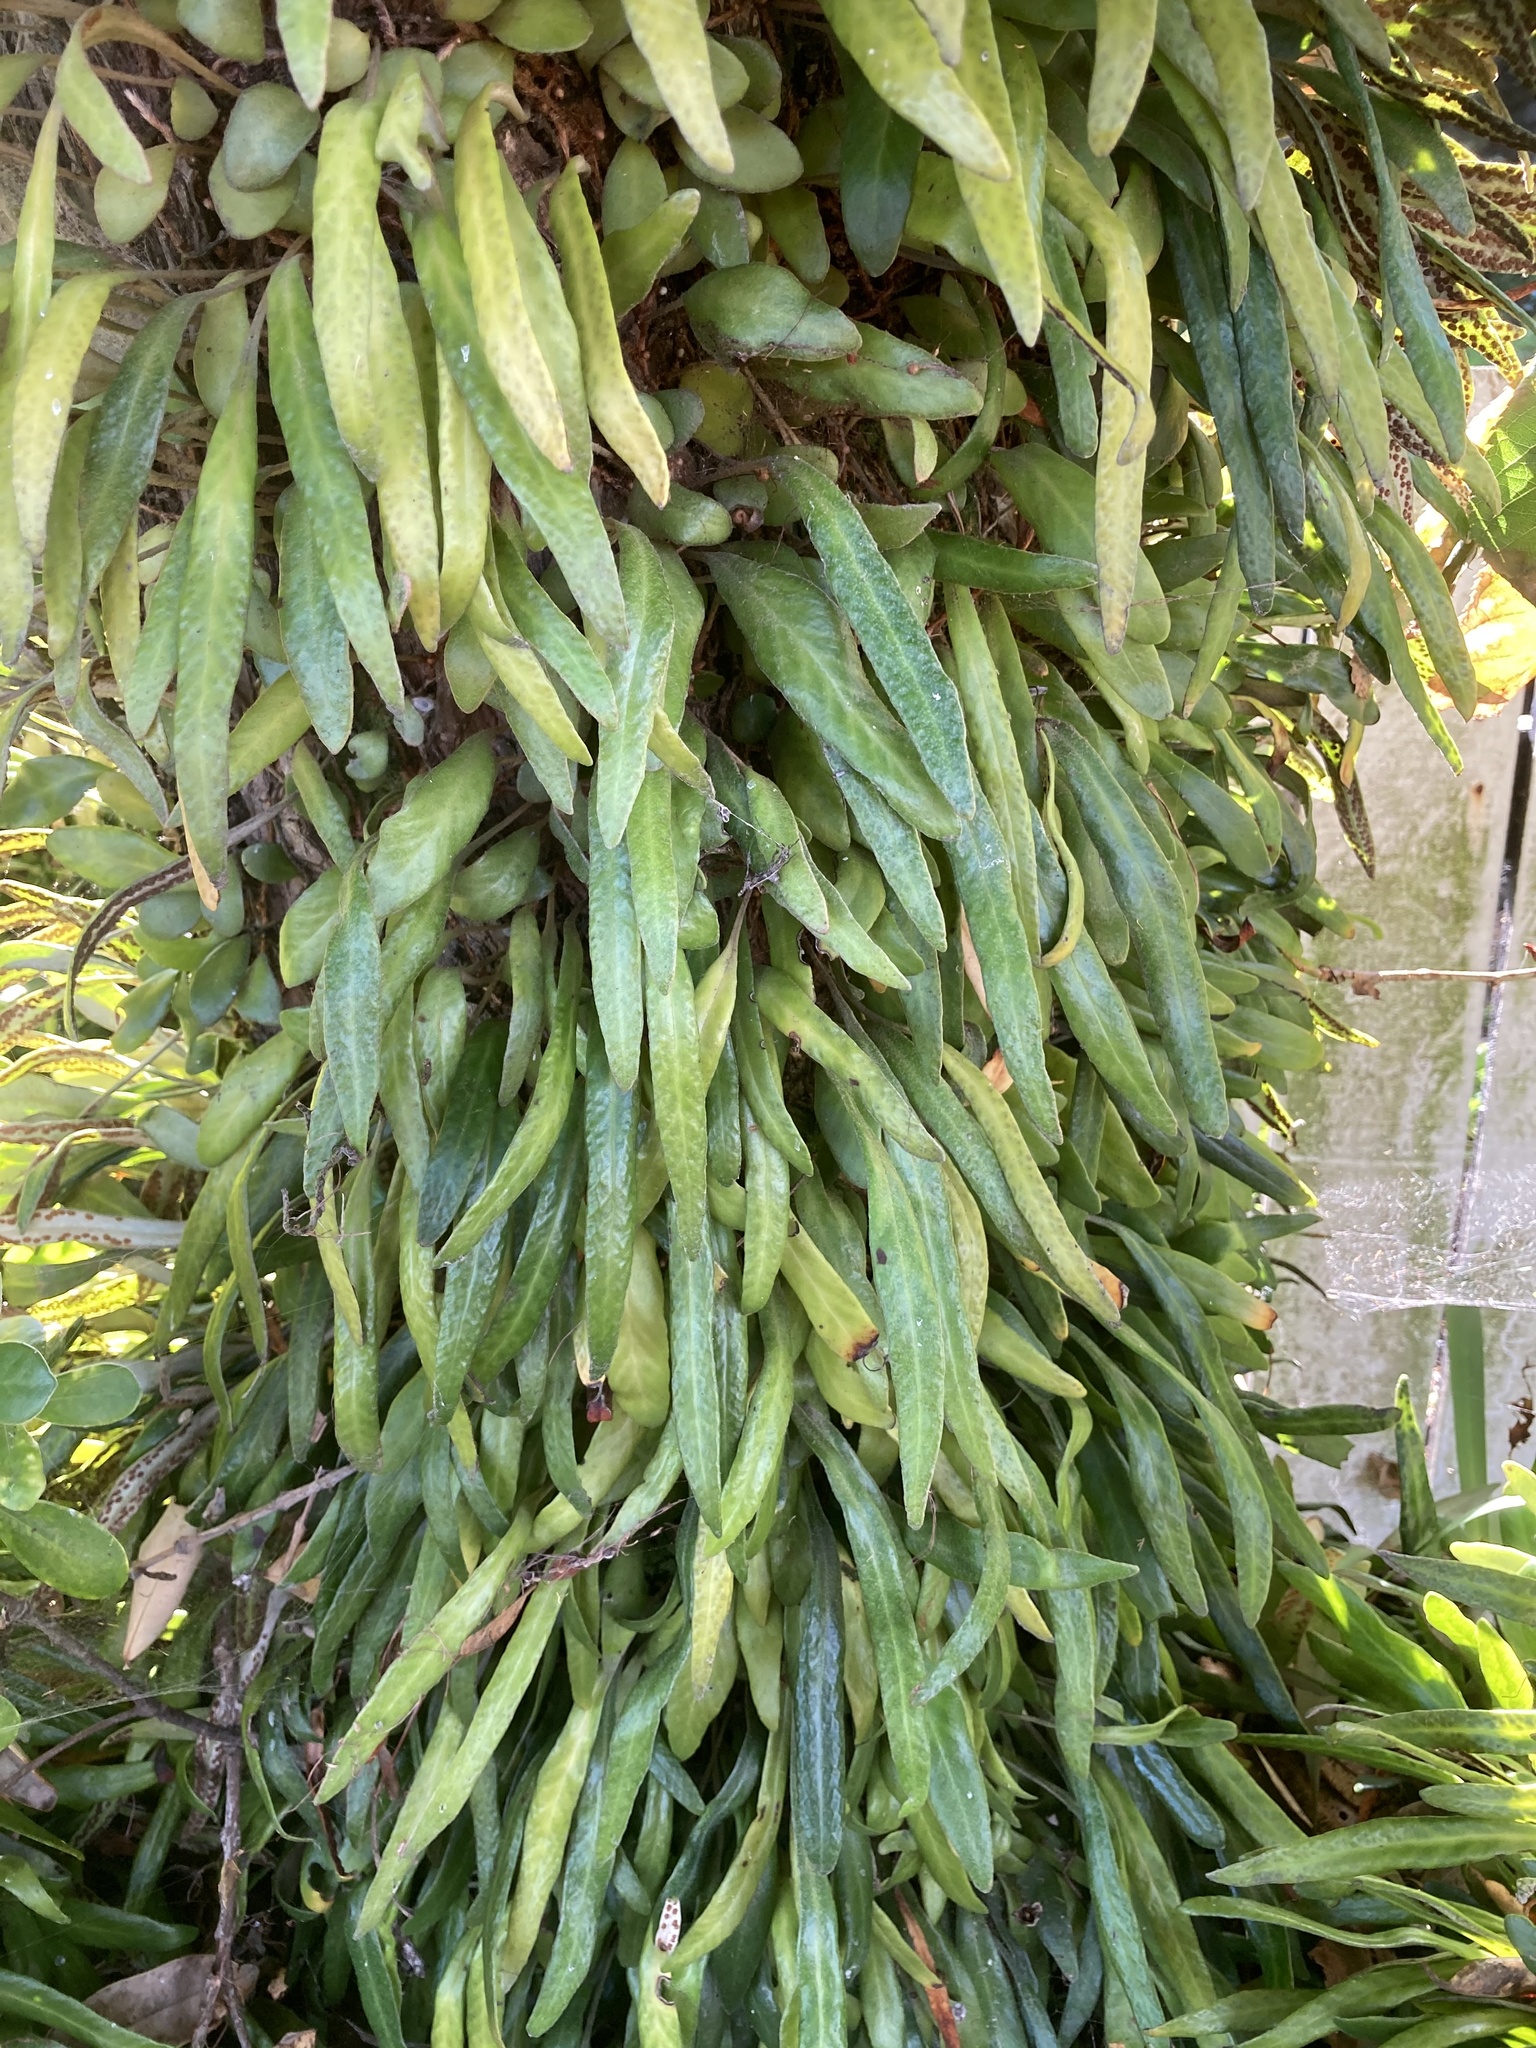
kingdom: Plantae
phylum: Tracheophyta
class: Polypodiopsida
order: Polypodiales
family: Polypodiaceae
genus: Pyrrosia
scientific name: Pyrrosia eleagnifolia
